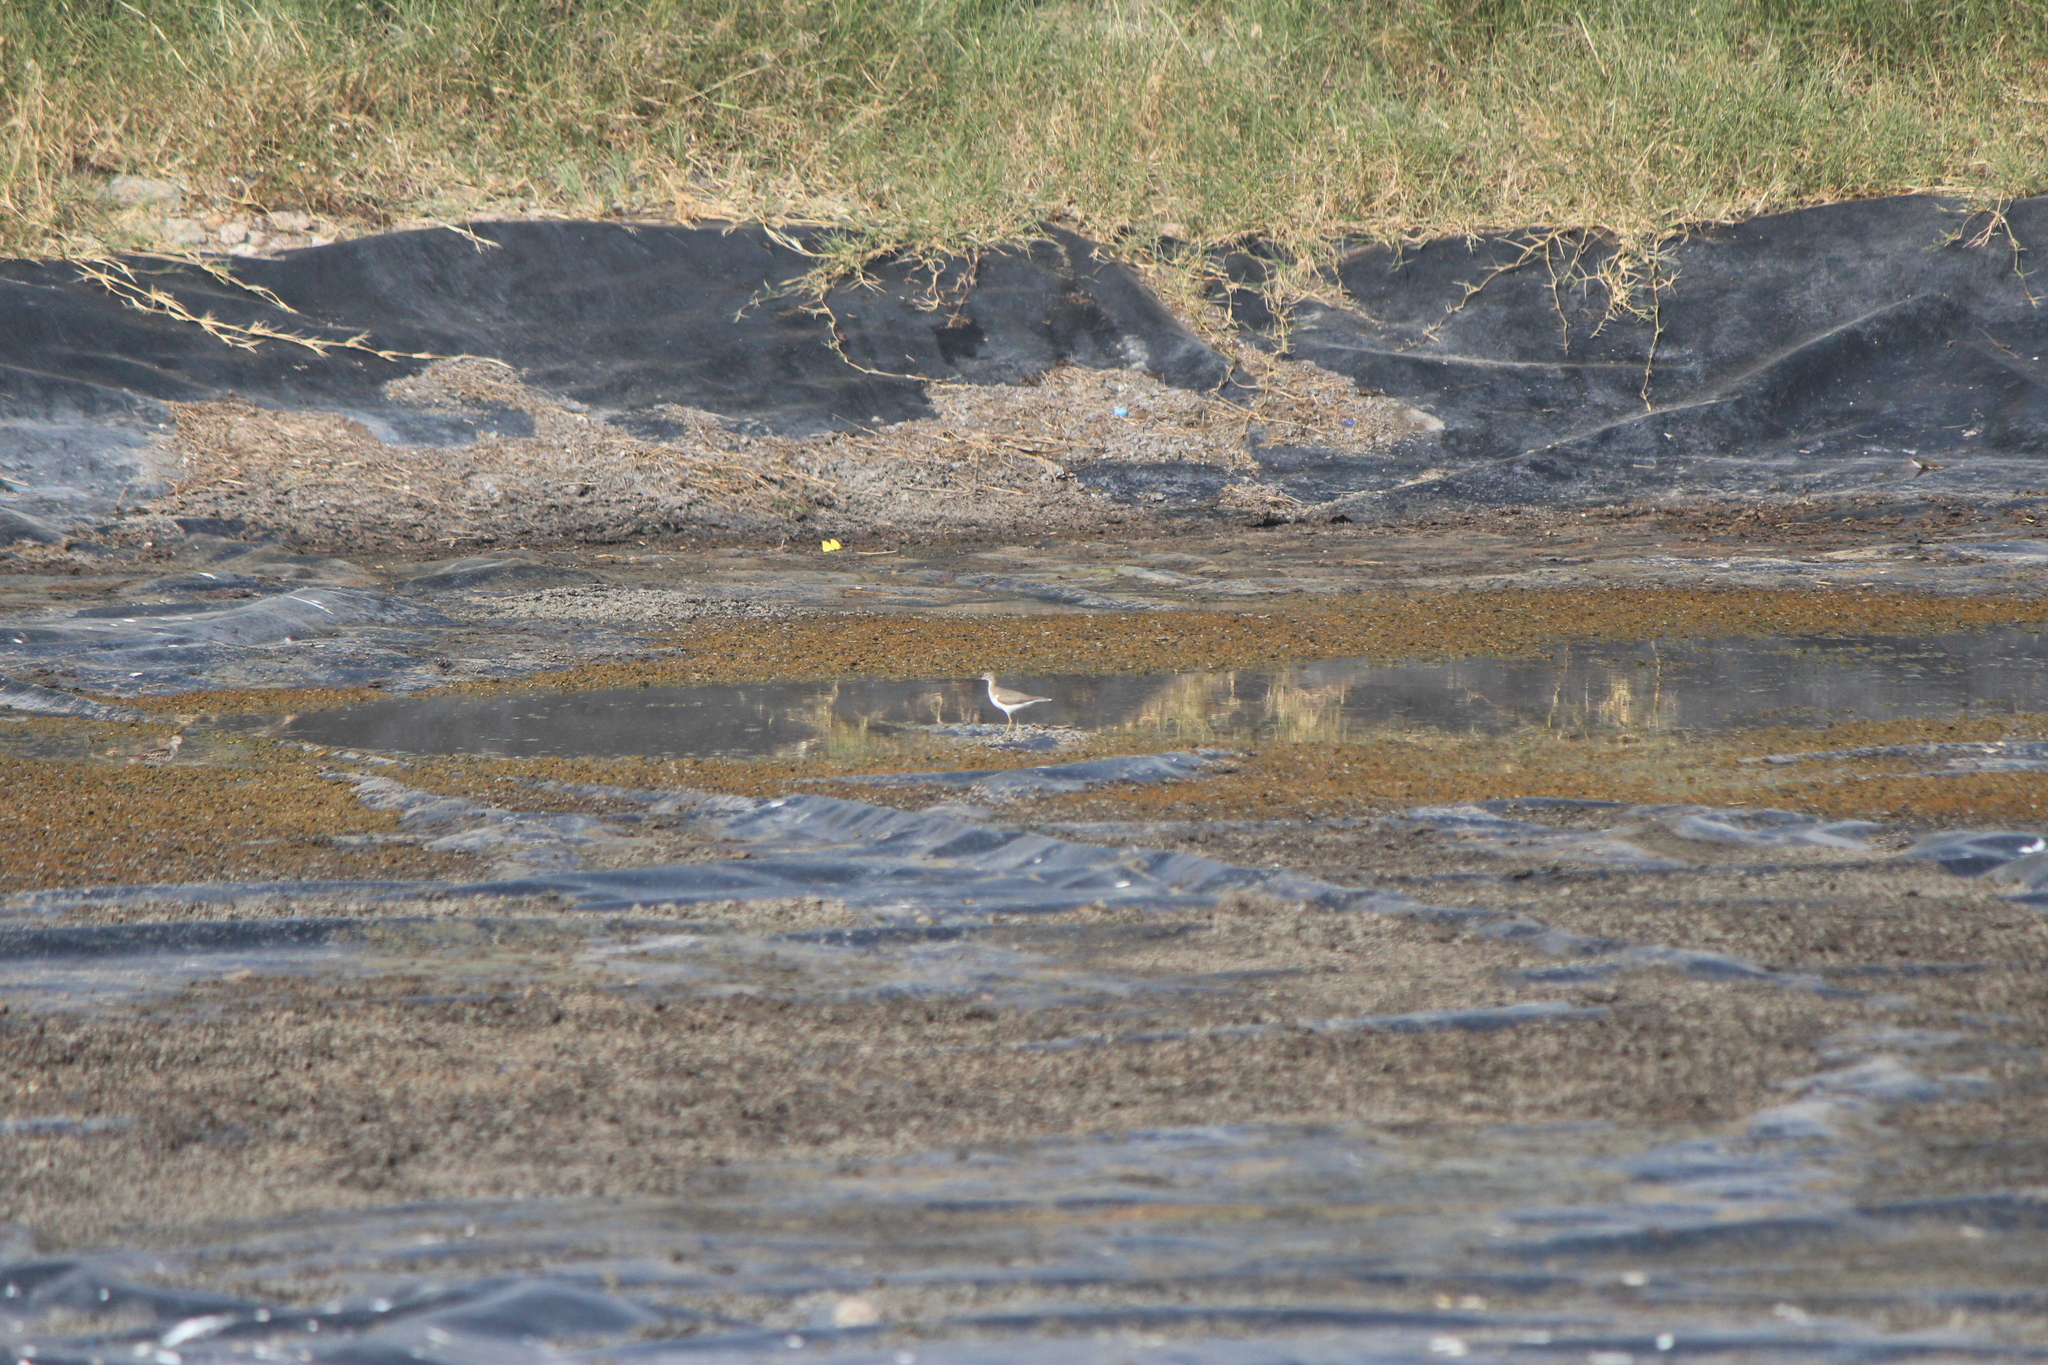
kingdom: Animalia
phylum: Chordata
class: Aves
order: Charadriiformes
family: Scolopacidae
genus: Actitis
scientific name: Actitis macularius
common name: Spotted sandpiper
